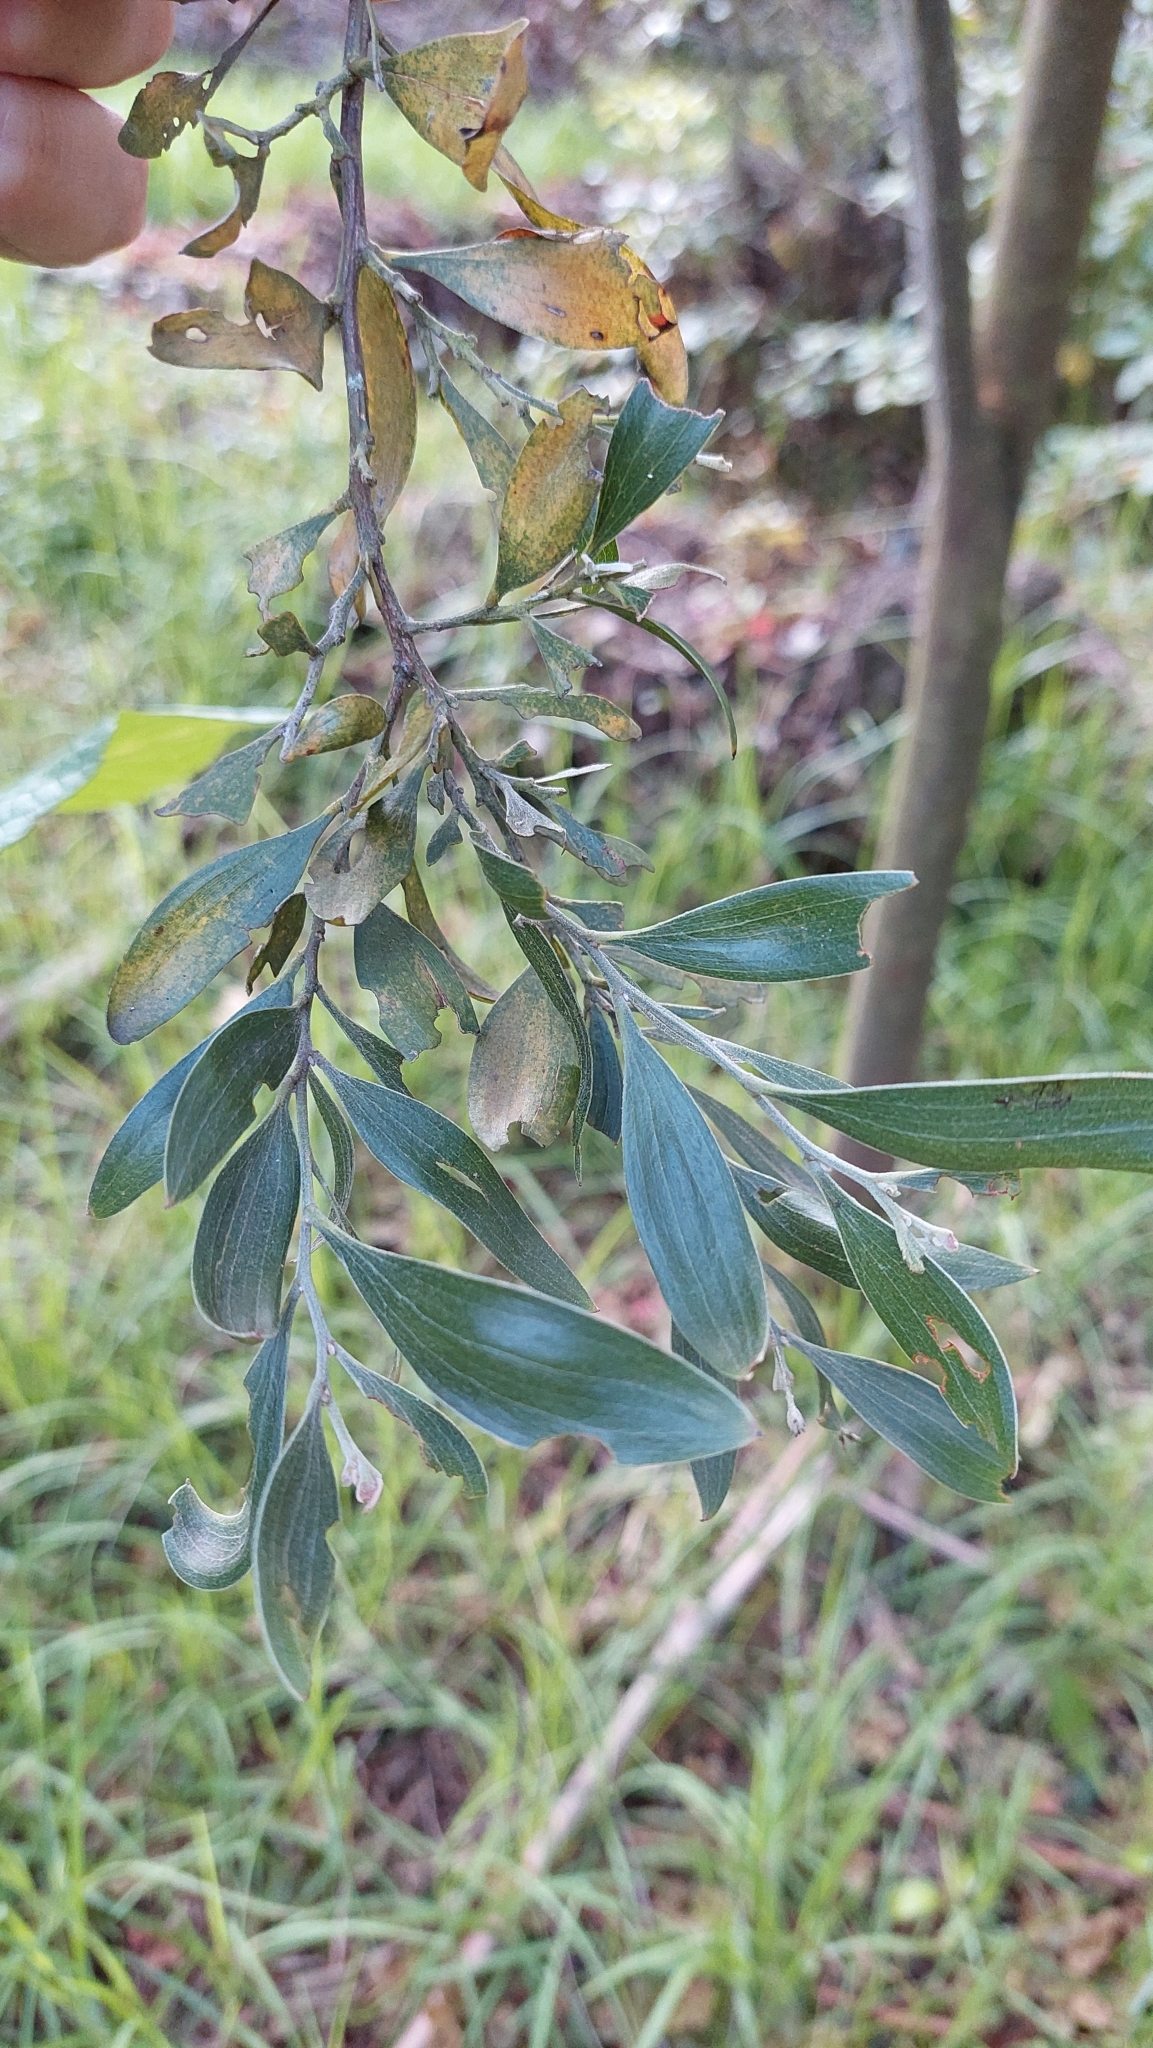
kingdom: Plantae
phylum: Tracheophyta
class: Magnoliopsida
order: Fabales
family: Fabaceae
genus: Acacia
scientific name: Acacia melanoxylon
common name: Blackwood
